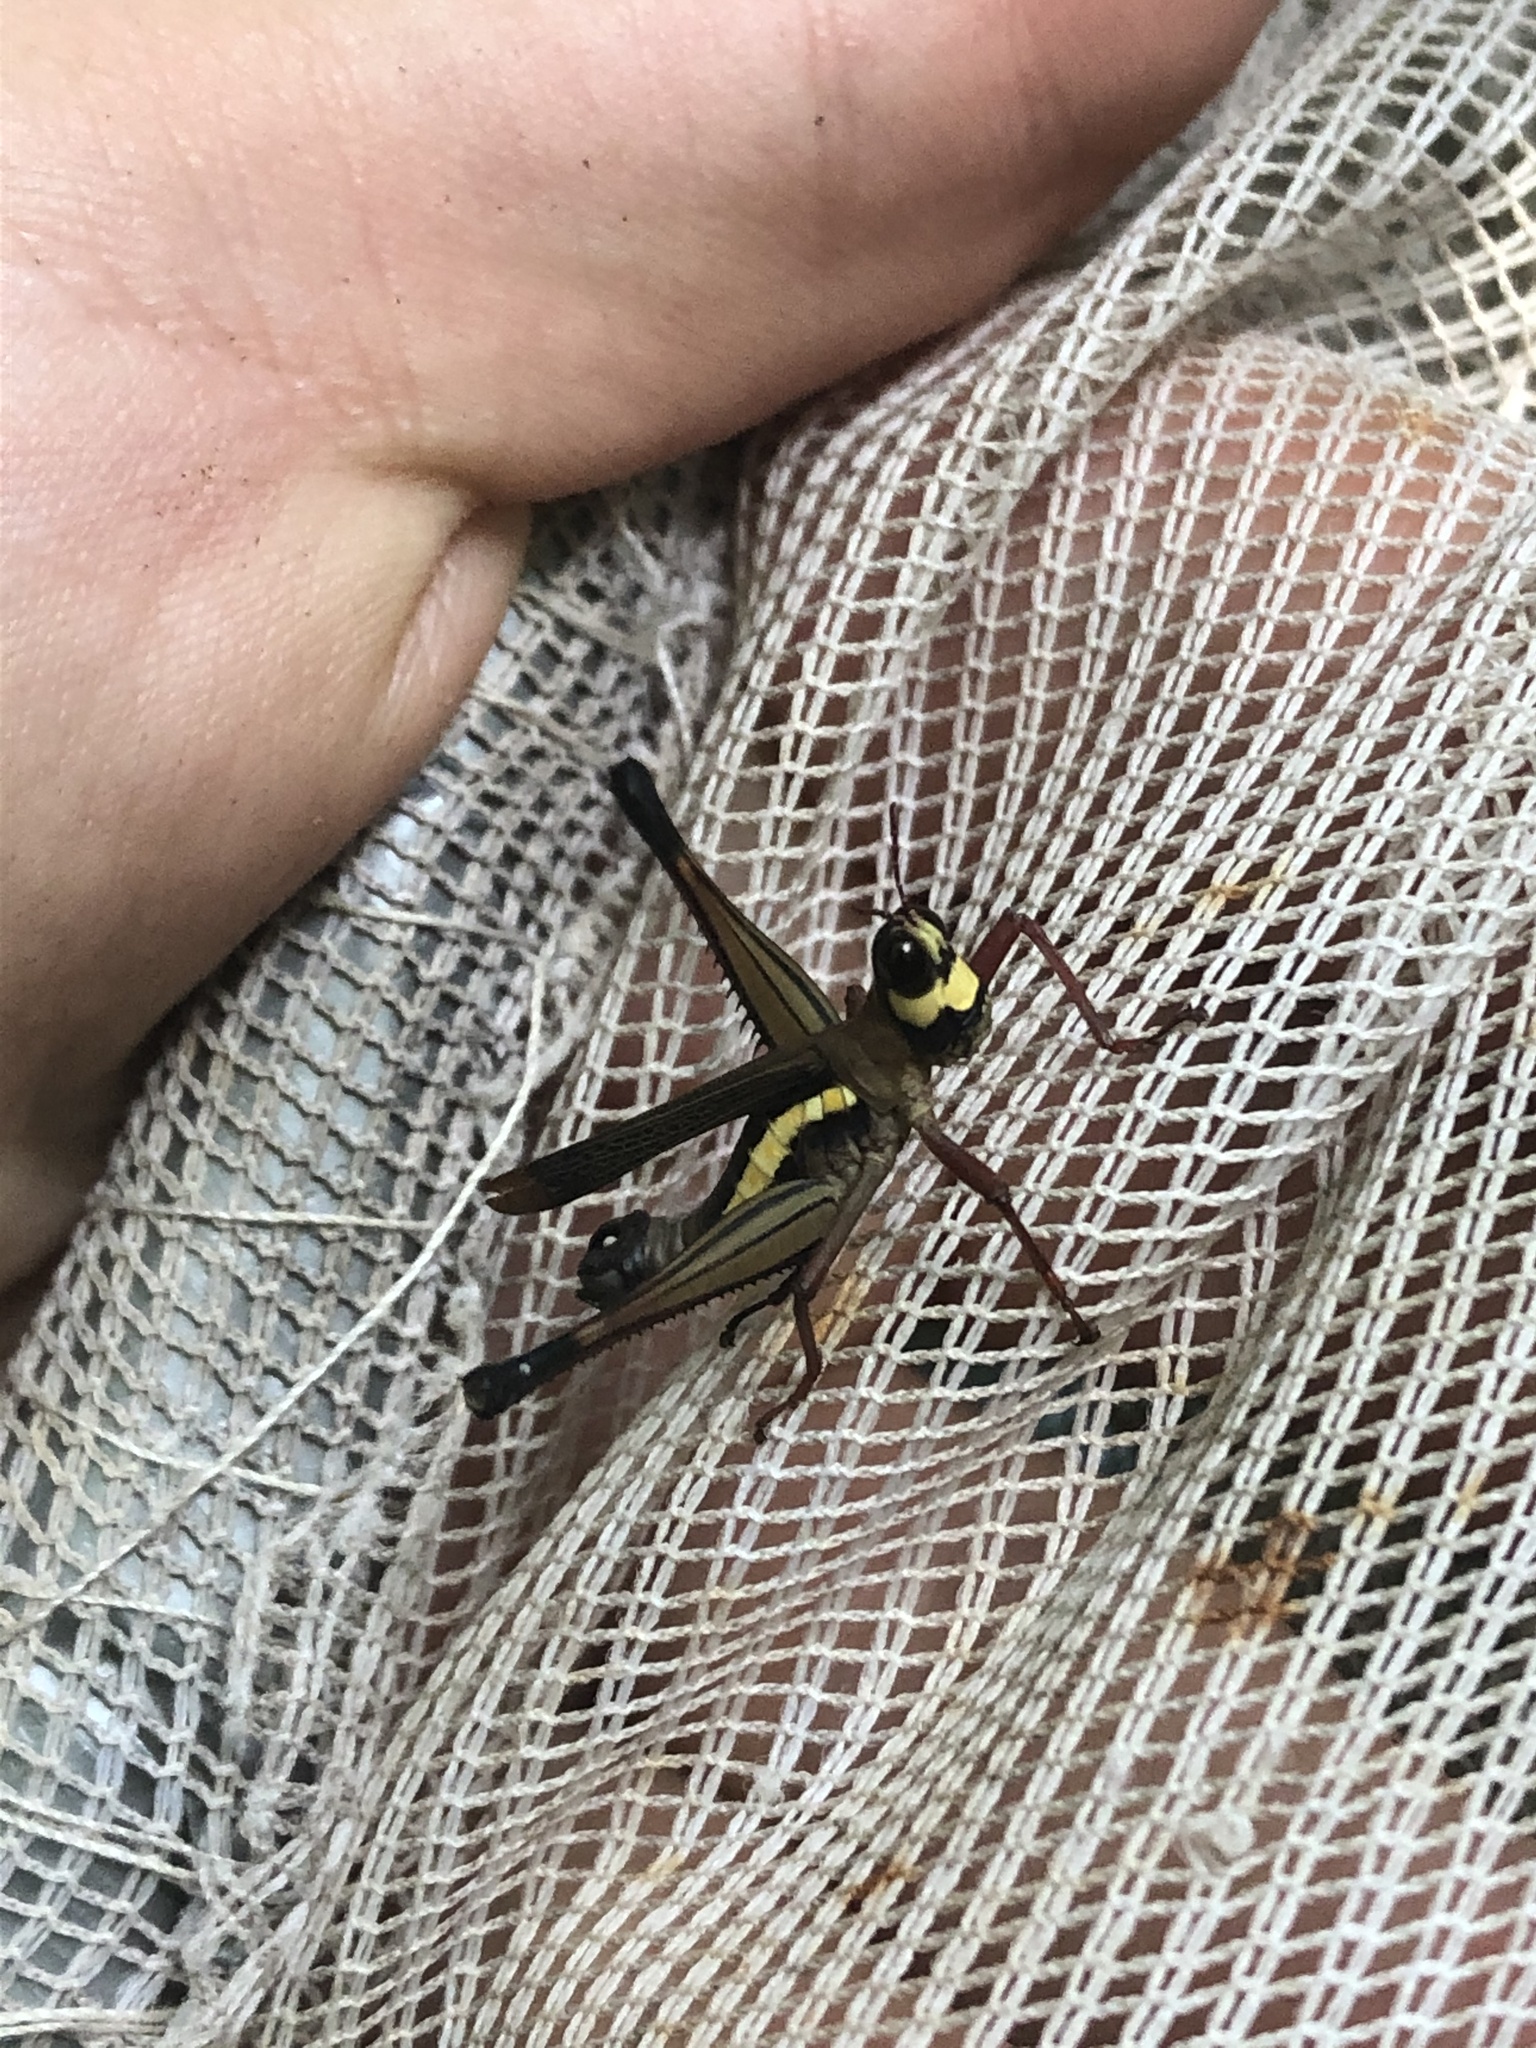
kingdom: Animalia
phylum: Arthropoda
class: Insecta
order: Orthoptera
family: Eumastacidae
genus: Pseudomastax
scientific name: Pseudomastax personata
